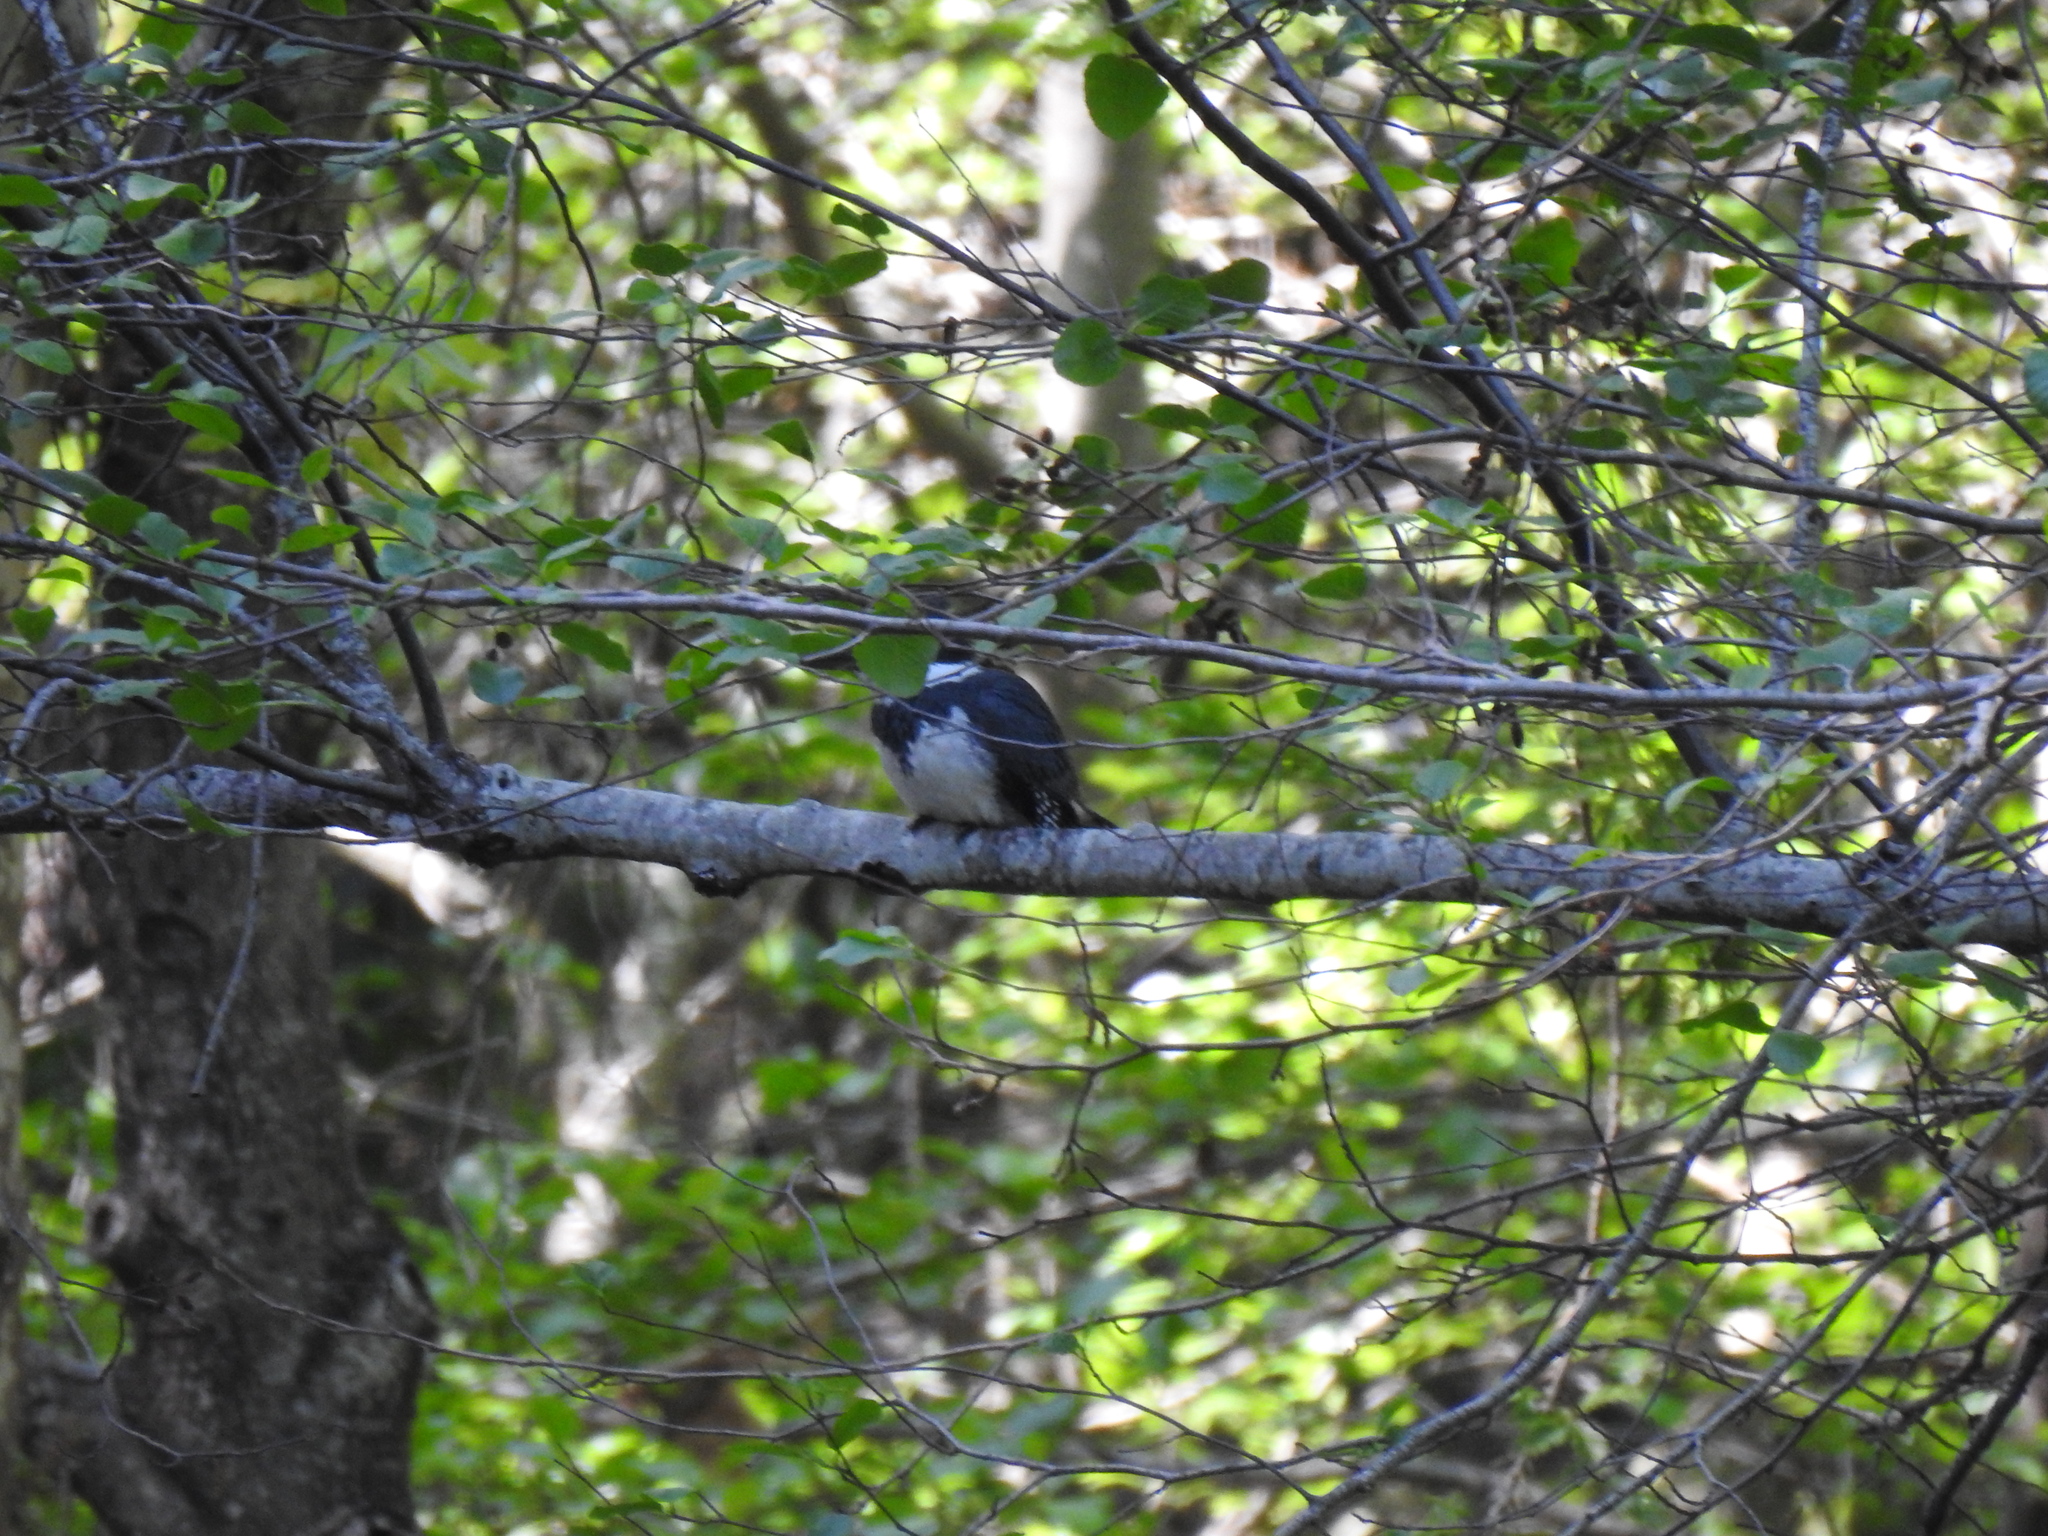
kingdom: Animalia
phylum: Chordata
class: Aves
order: Coraciiformes
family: Alcedinidae
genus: Megaceryle
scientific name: Megaceryle alcyon
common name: Belted kingfisher
